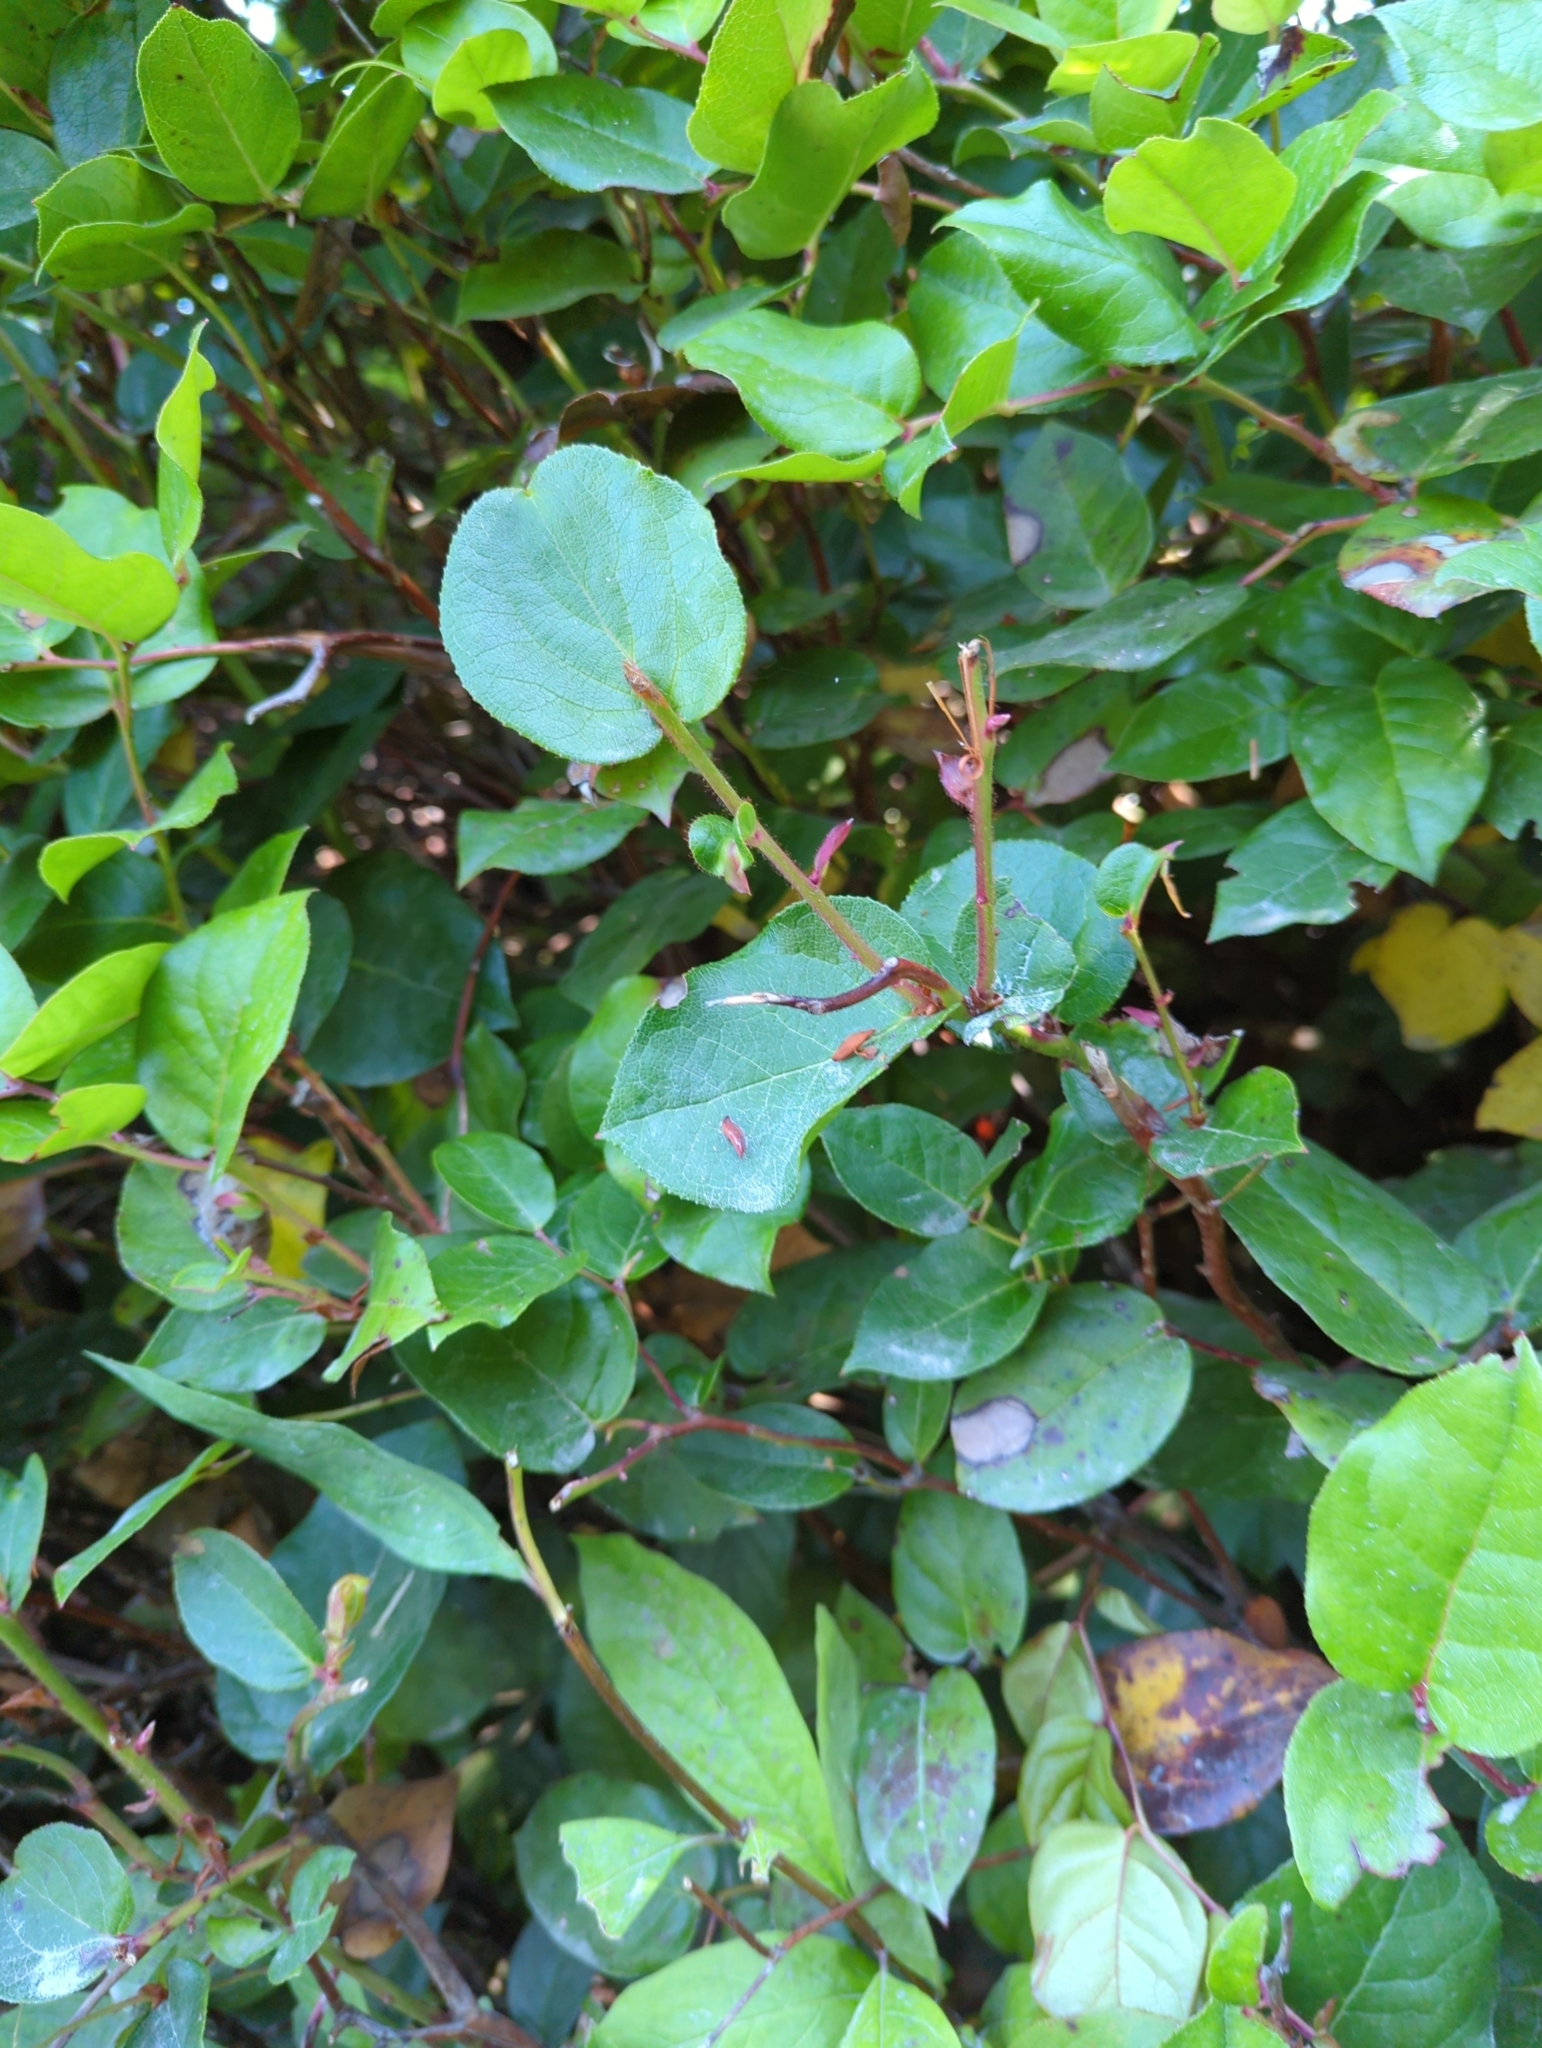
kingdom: Plantae
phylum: Tracheophyta
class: Magnoliopsida
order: Ericales
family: Ericaceae
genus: Gaultheria
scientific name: Gaultheria shallon
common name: Shallon
